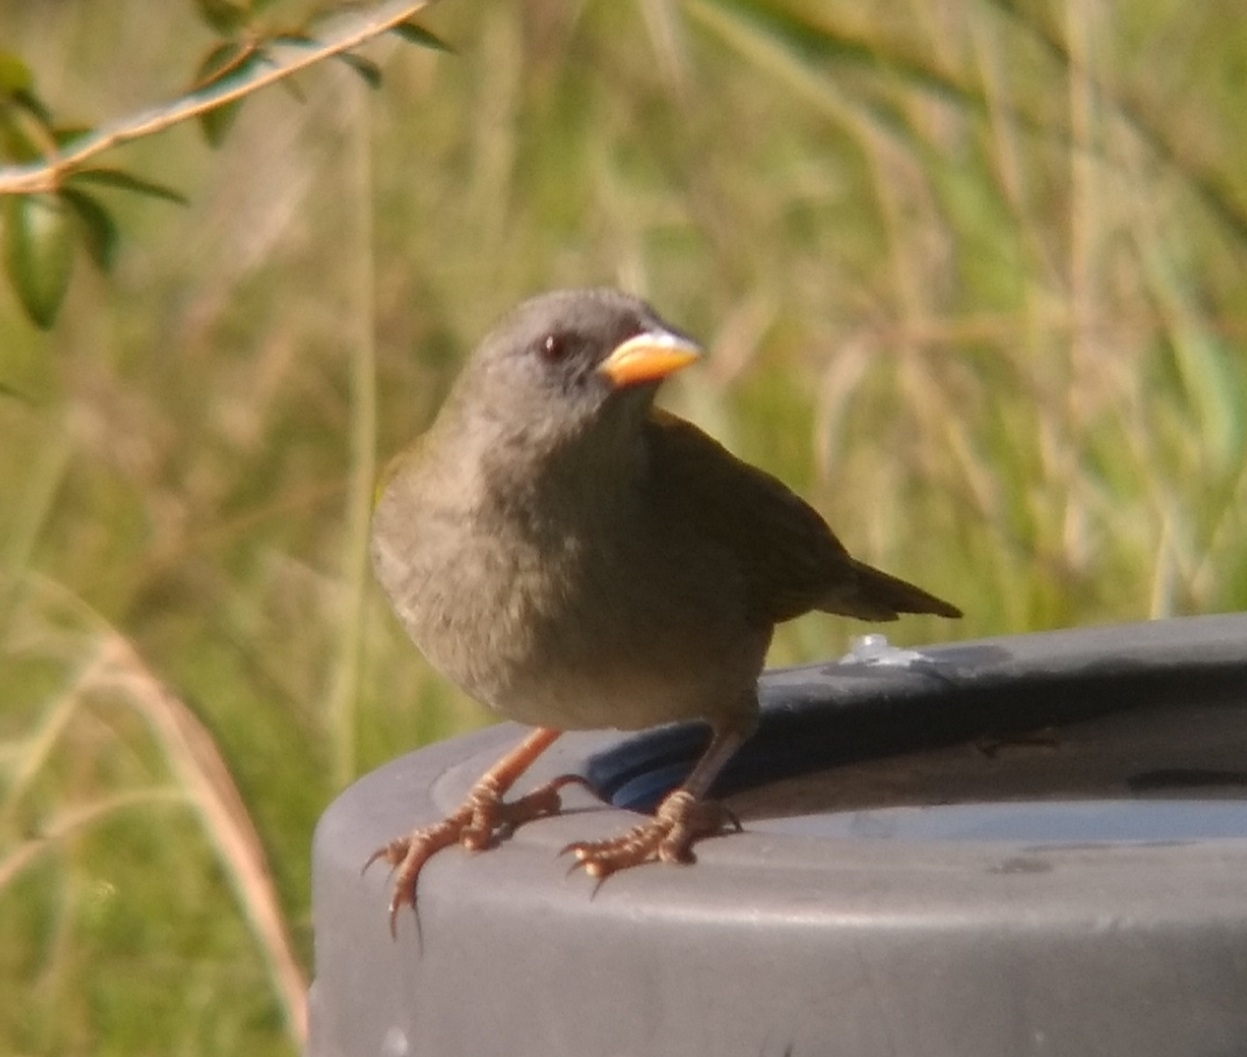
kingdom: Animalia
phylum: Chordata
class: Aves
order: Passeriformes
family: Thraupidae
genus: Embernagra
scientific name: Embernagra platensis
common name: Pampa finch
